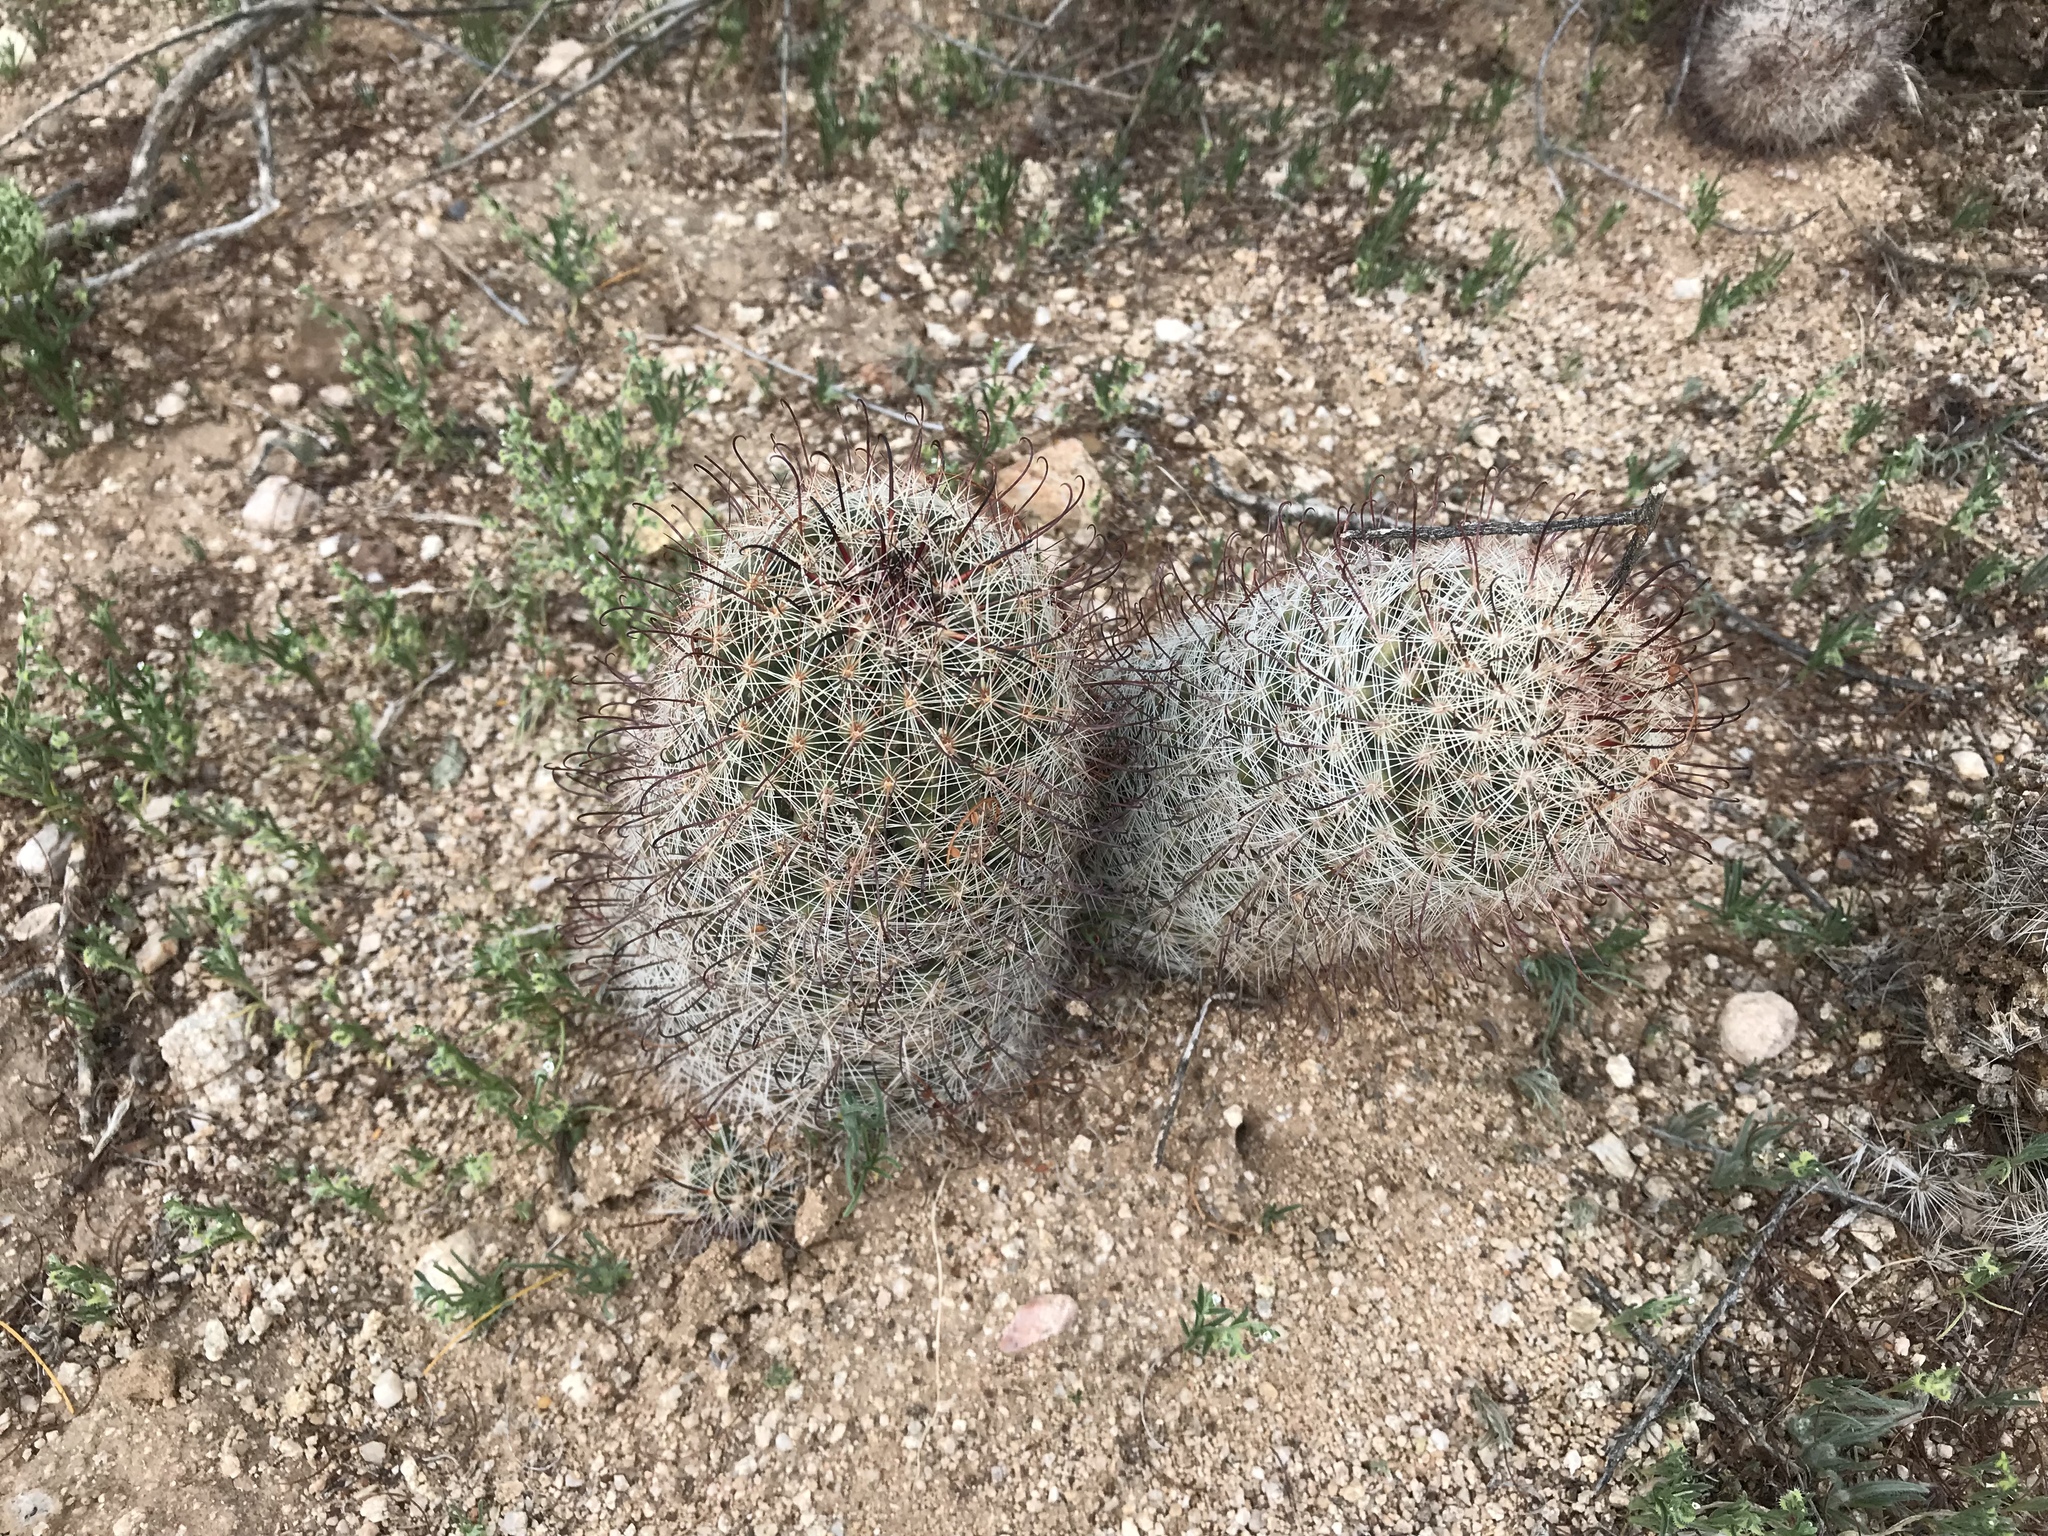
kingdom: Plantae
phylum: Tracheophyta
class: Magnoliopsida
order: Caryophyllales
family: Cactaceae
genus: Cochemiea
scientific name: Cochemiea grahamii
